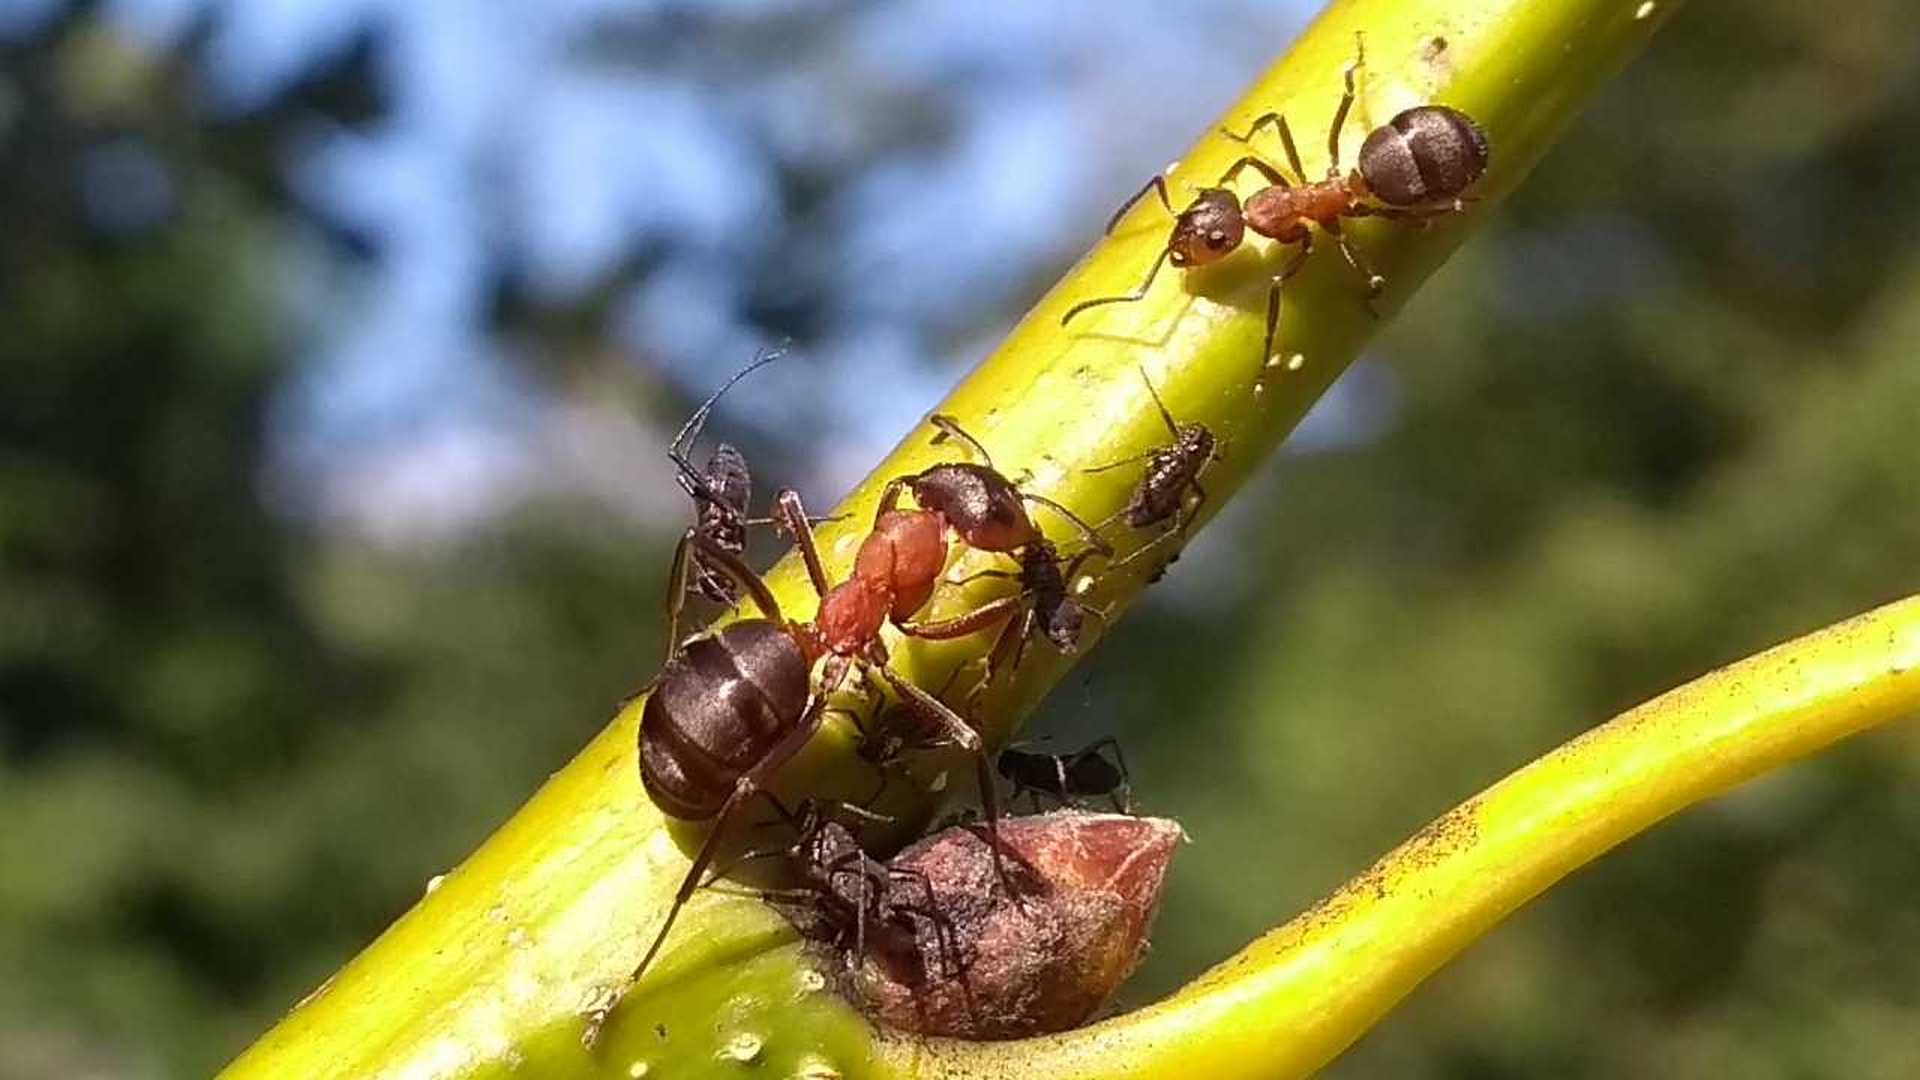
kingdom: Animalia
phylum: Arthropoda
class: Insecta
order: Hymenoptera
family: Formicidae
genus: Formica
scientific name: Formica
